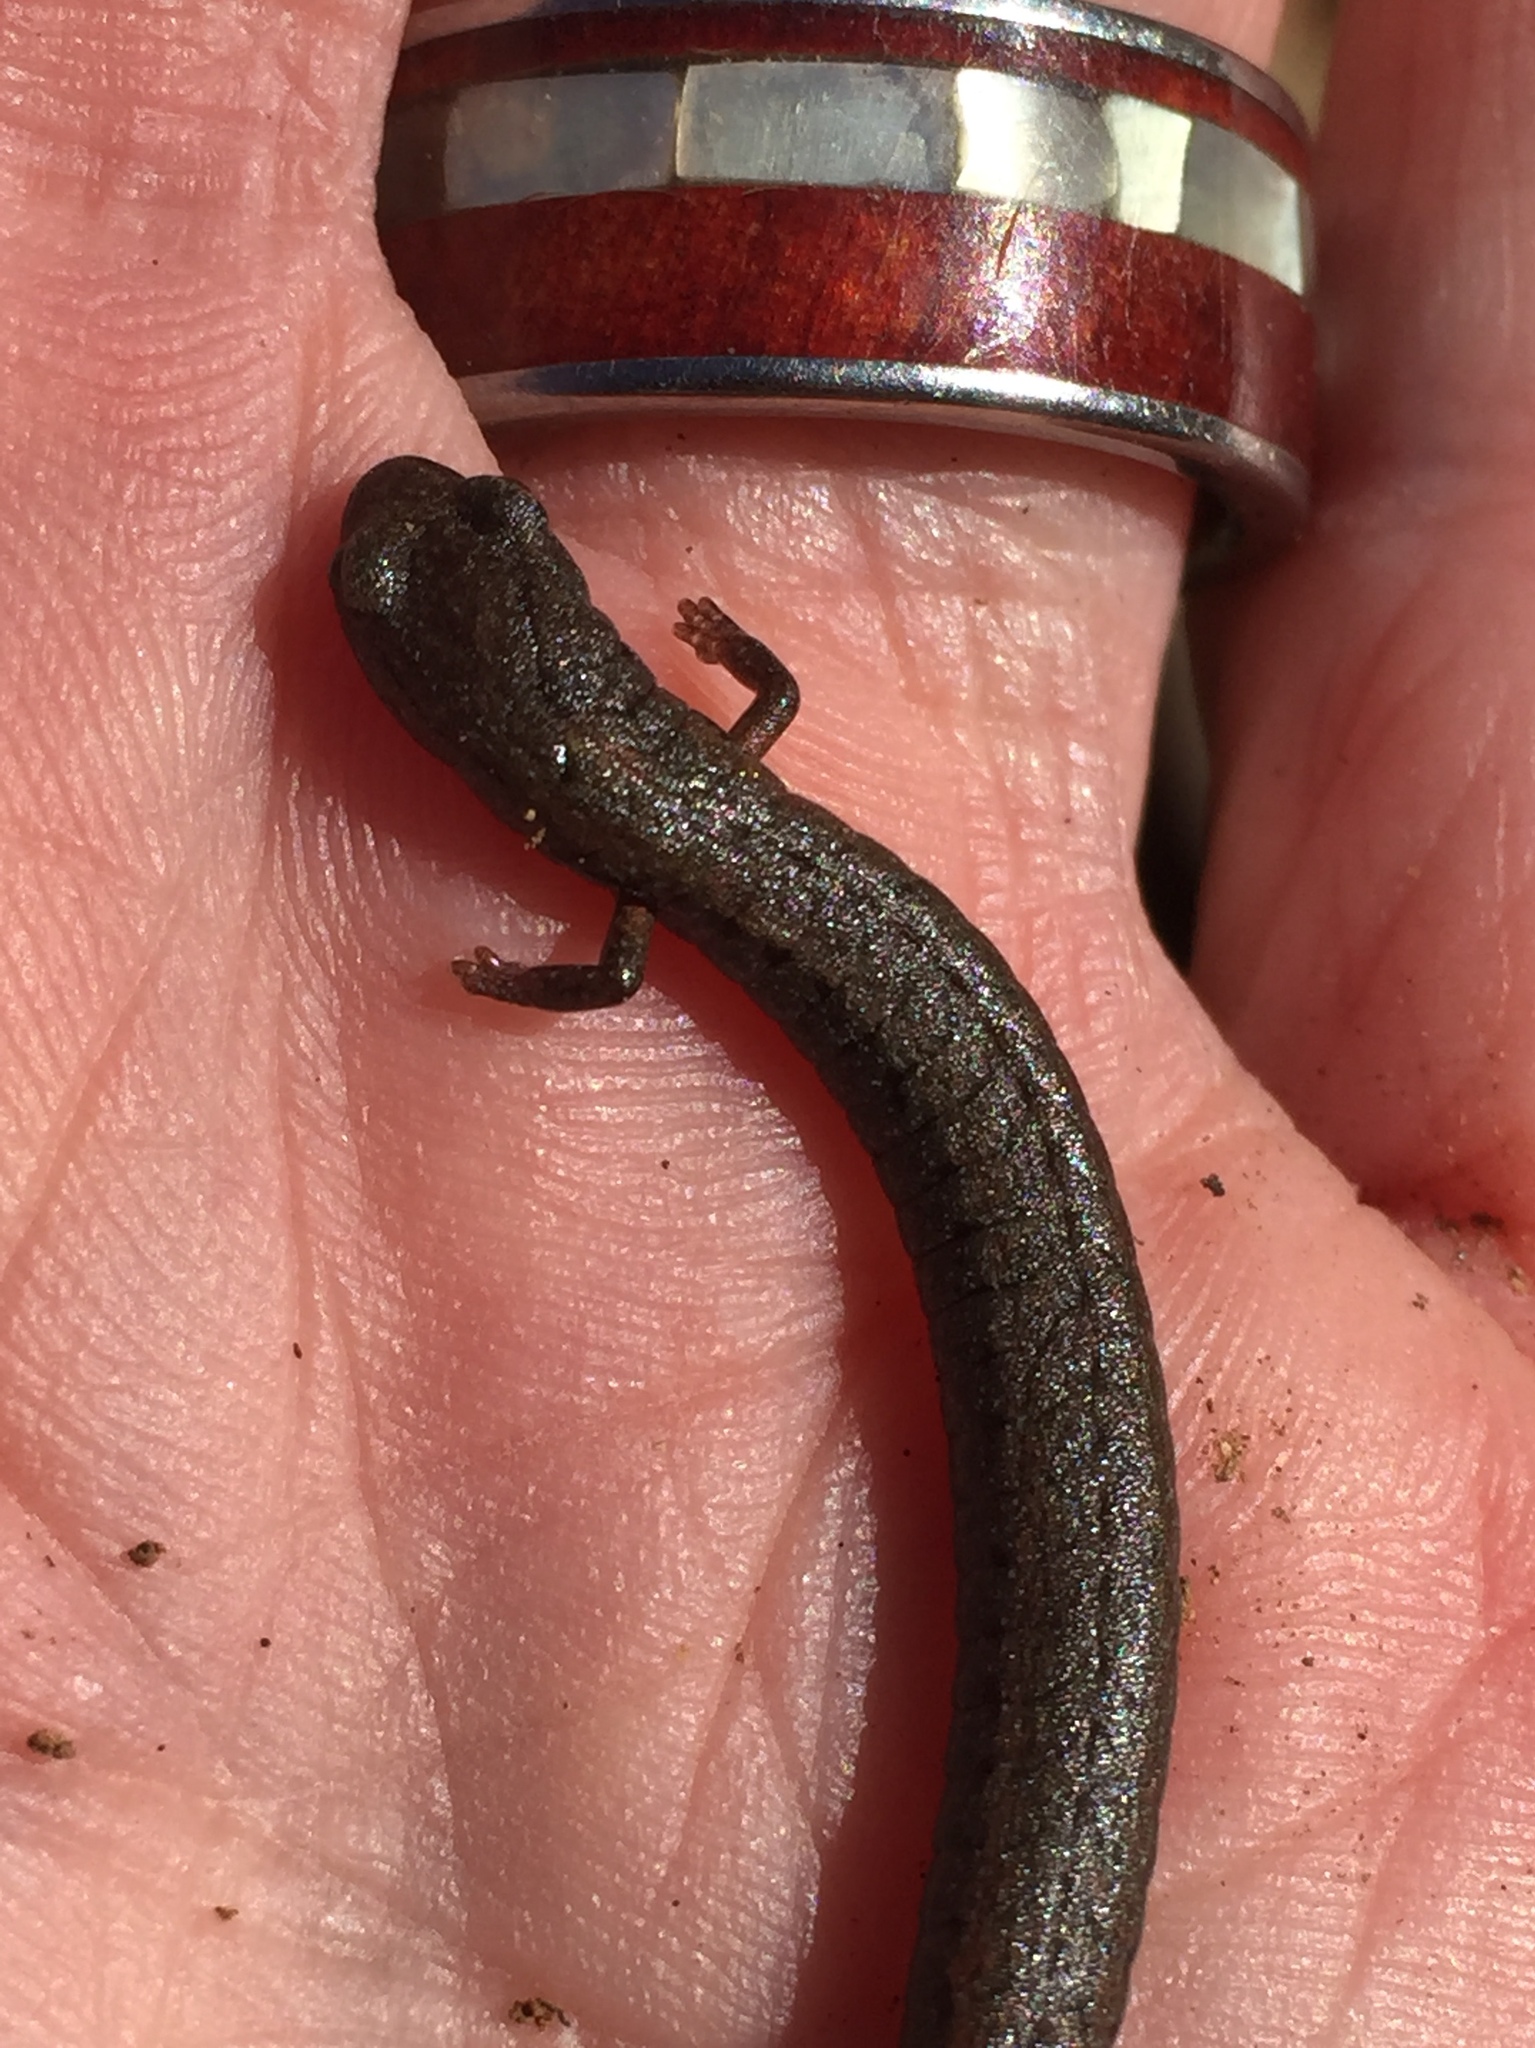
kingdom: Animalia
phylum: Chordata
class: Amphibia
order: Caudata
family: Plethodontidae
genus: Batrachoseps
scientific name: Batrachoseps attenuatus
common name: California slender salamander
